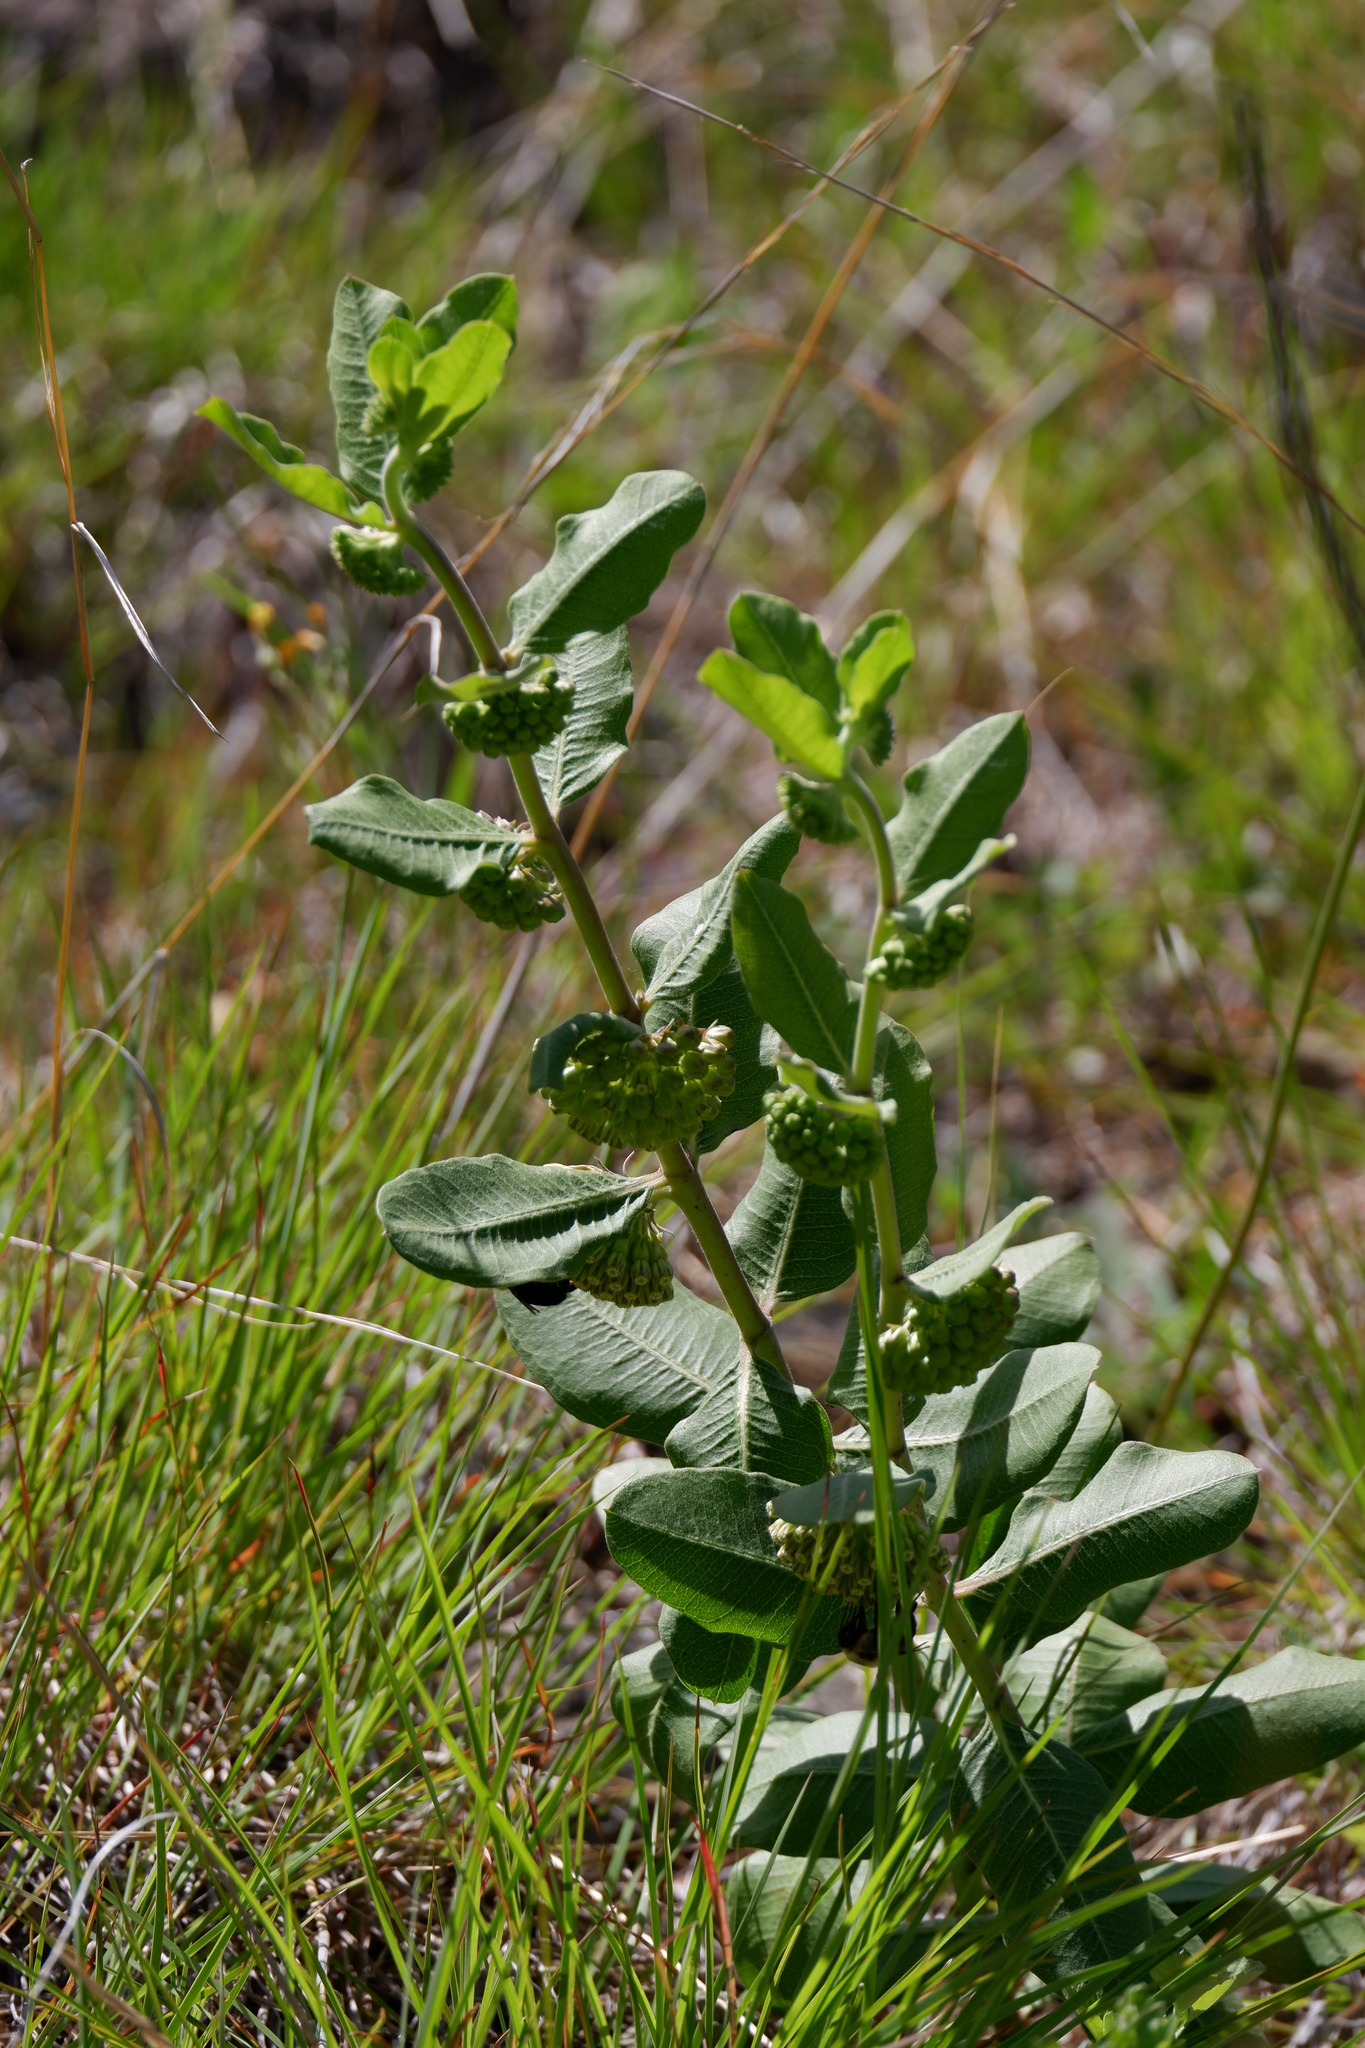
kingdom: Plantae
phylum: Tracheophyta
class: Magnoliopsida
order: Gentianales
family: Apocynaceae
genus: Asclepias
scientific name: Asclepias viridiflora
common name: Green comet milkweed
